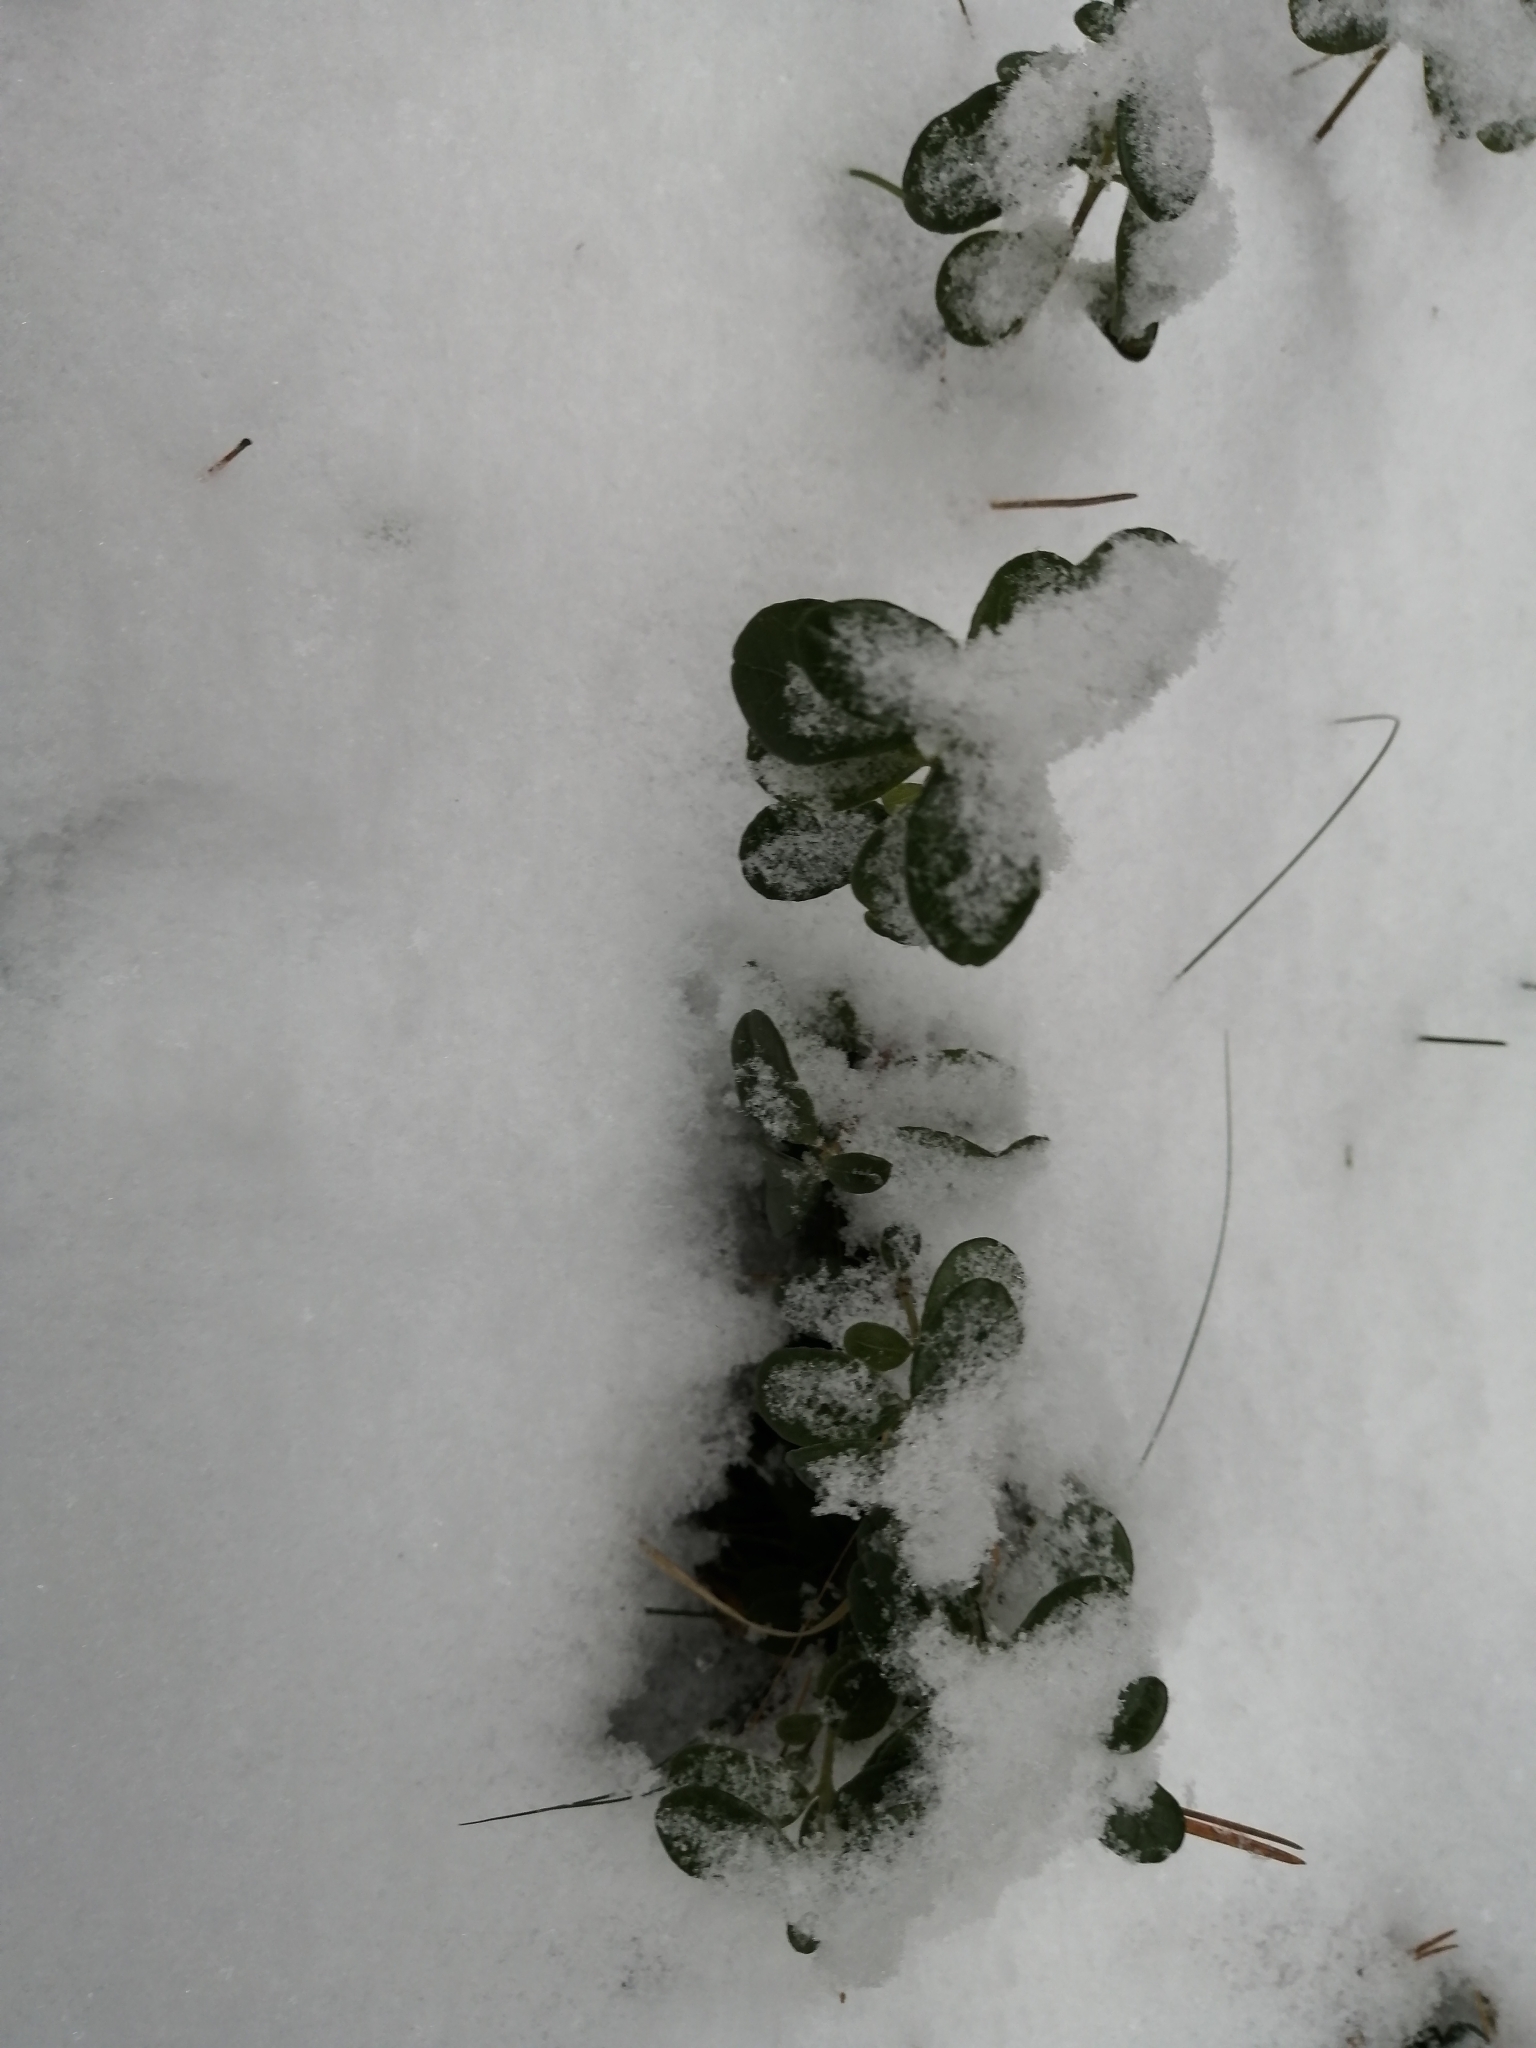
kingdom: Plantae
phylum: Tracheophyta
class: Magnoliopsida
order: Ericales
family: Ericaceae
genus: Vaccinium
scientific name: Vaccinium vitis-idaea
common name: Cowberry
